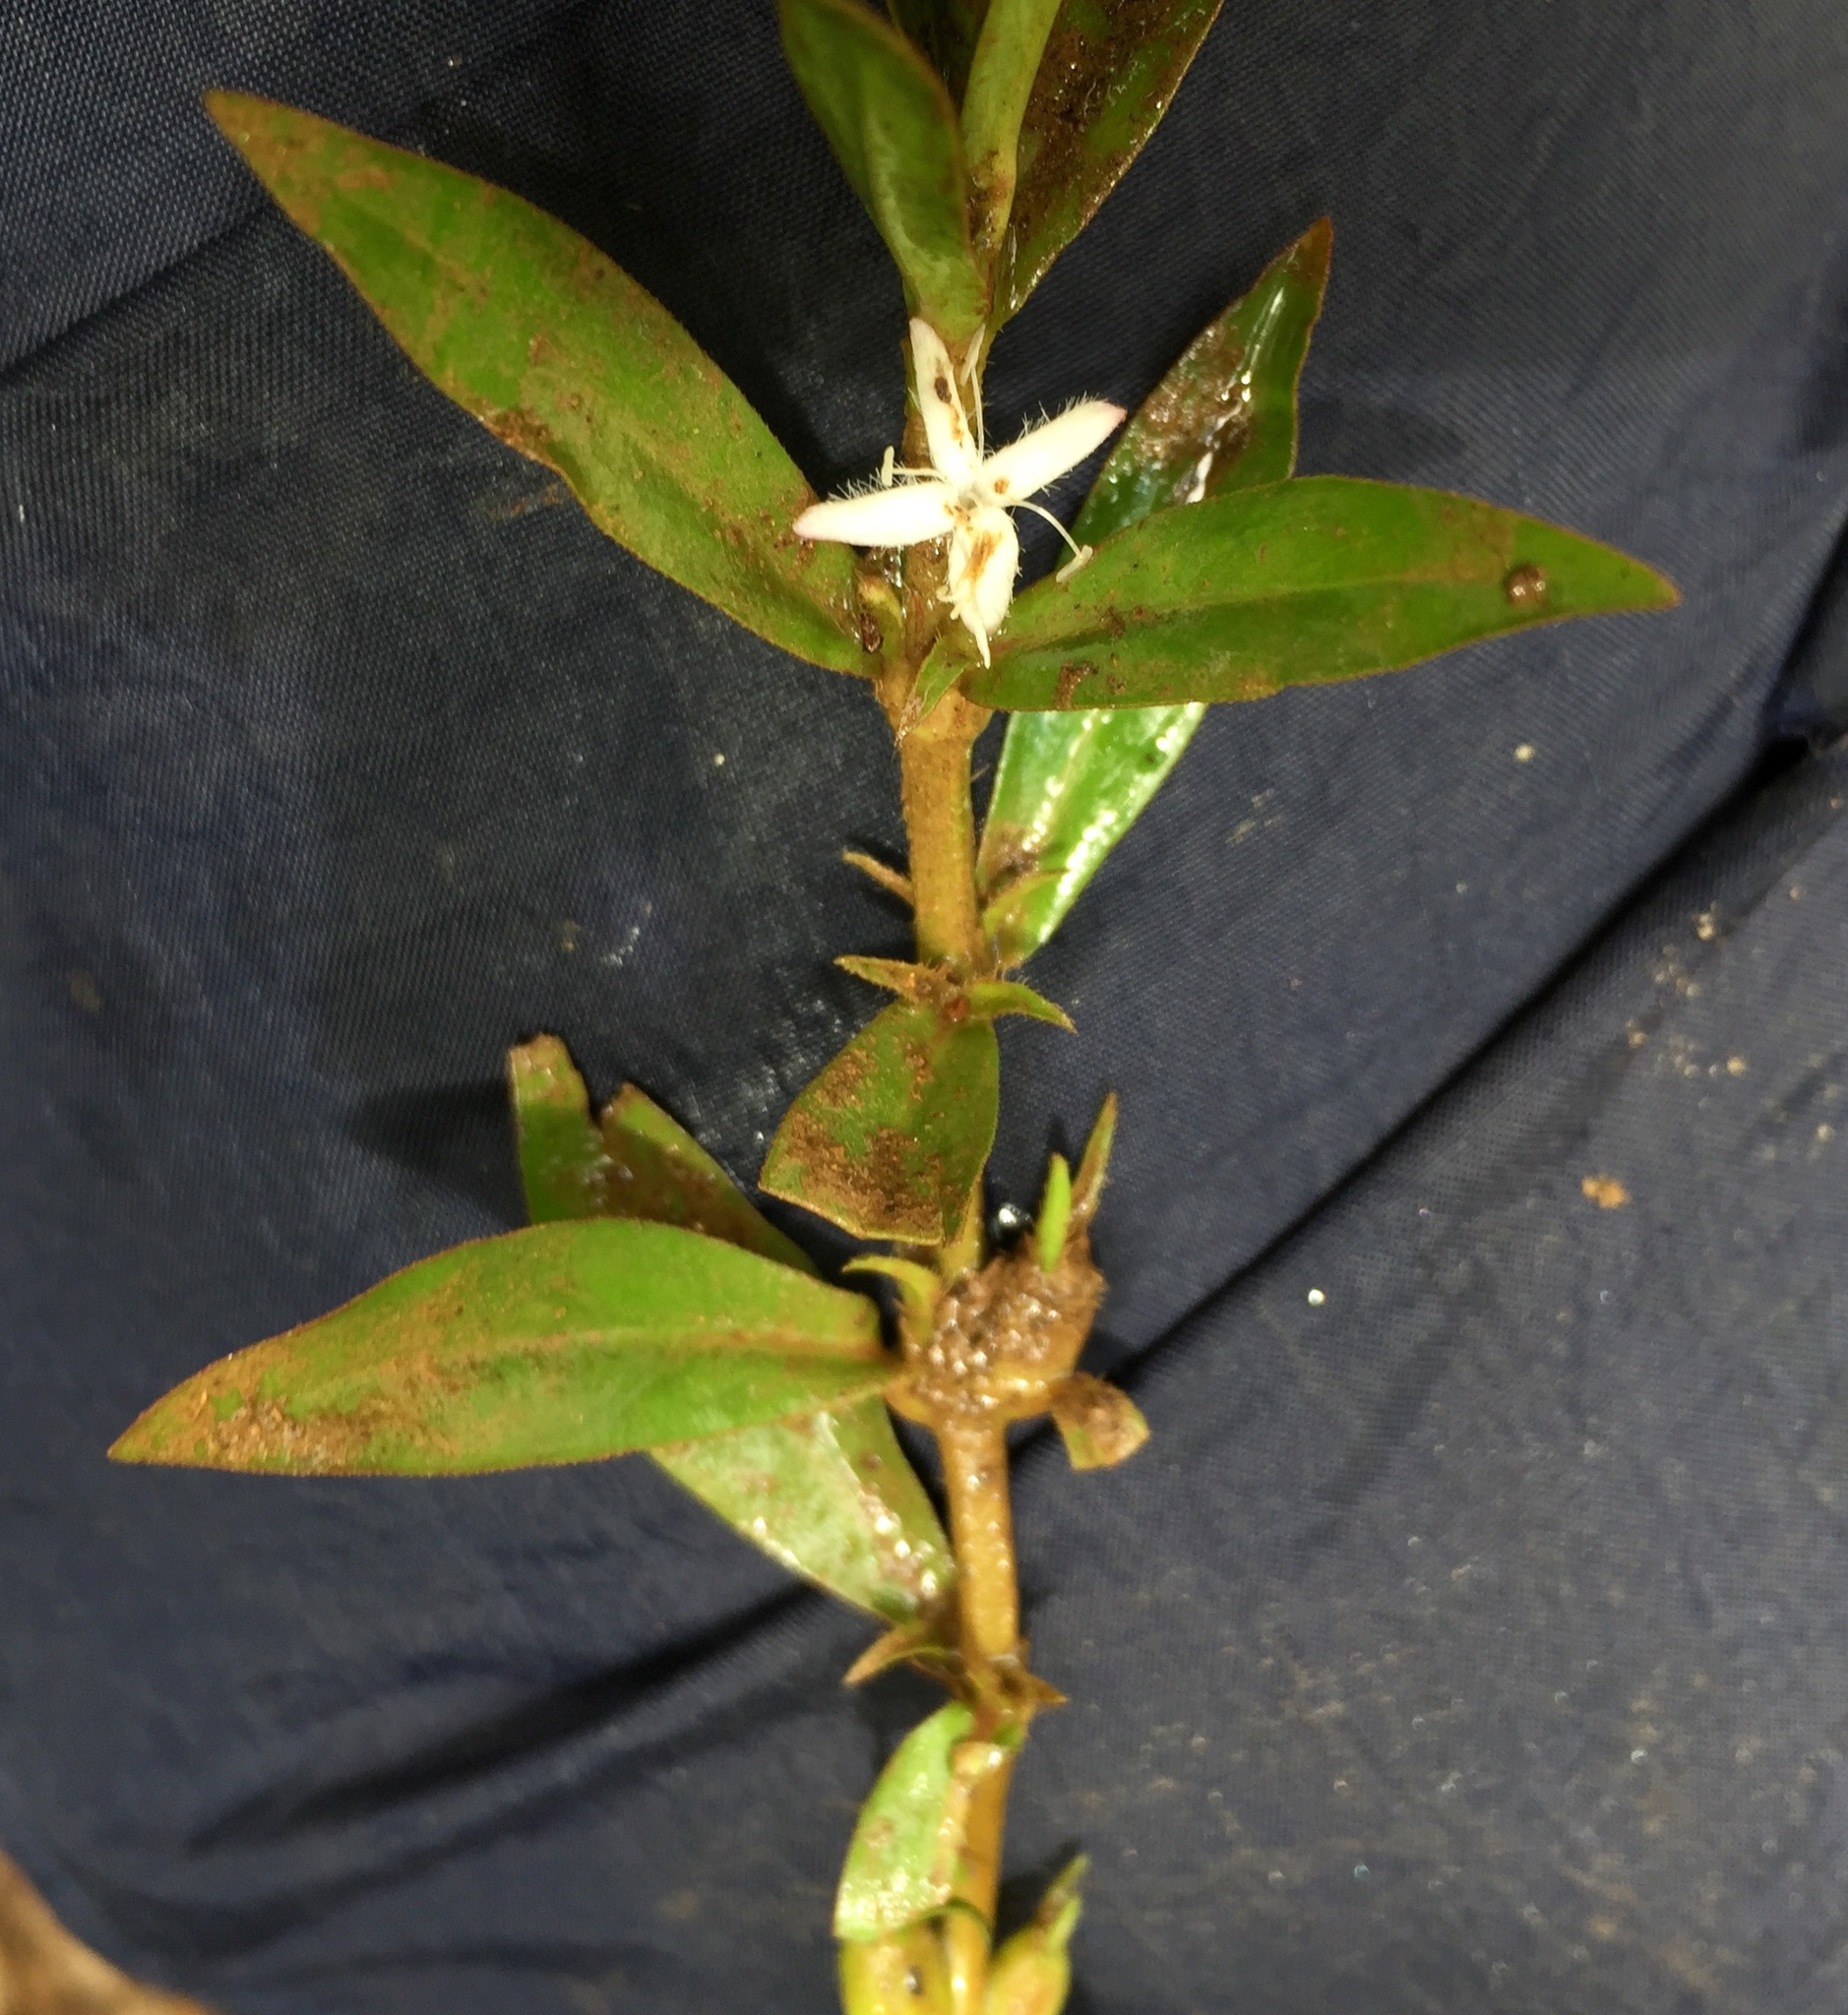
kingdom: Plantae
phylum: Tracheophyta
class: Magnoliopsida
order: Gentianales
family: Rubiaceae
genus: Diodia
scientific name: Diodia virginiana
